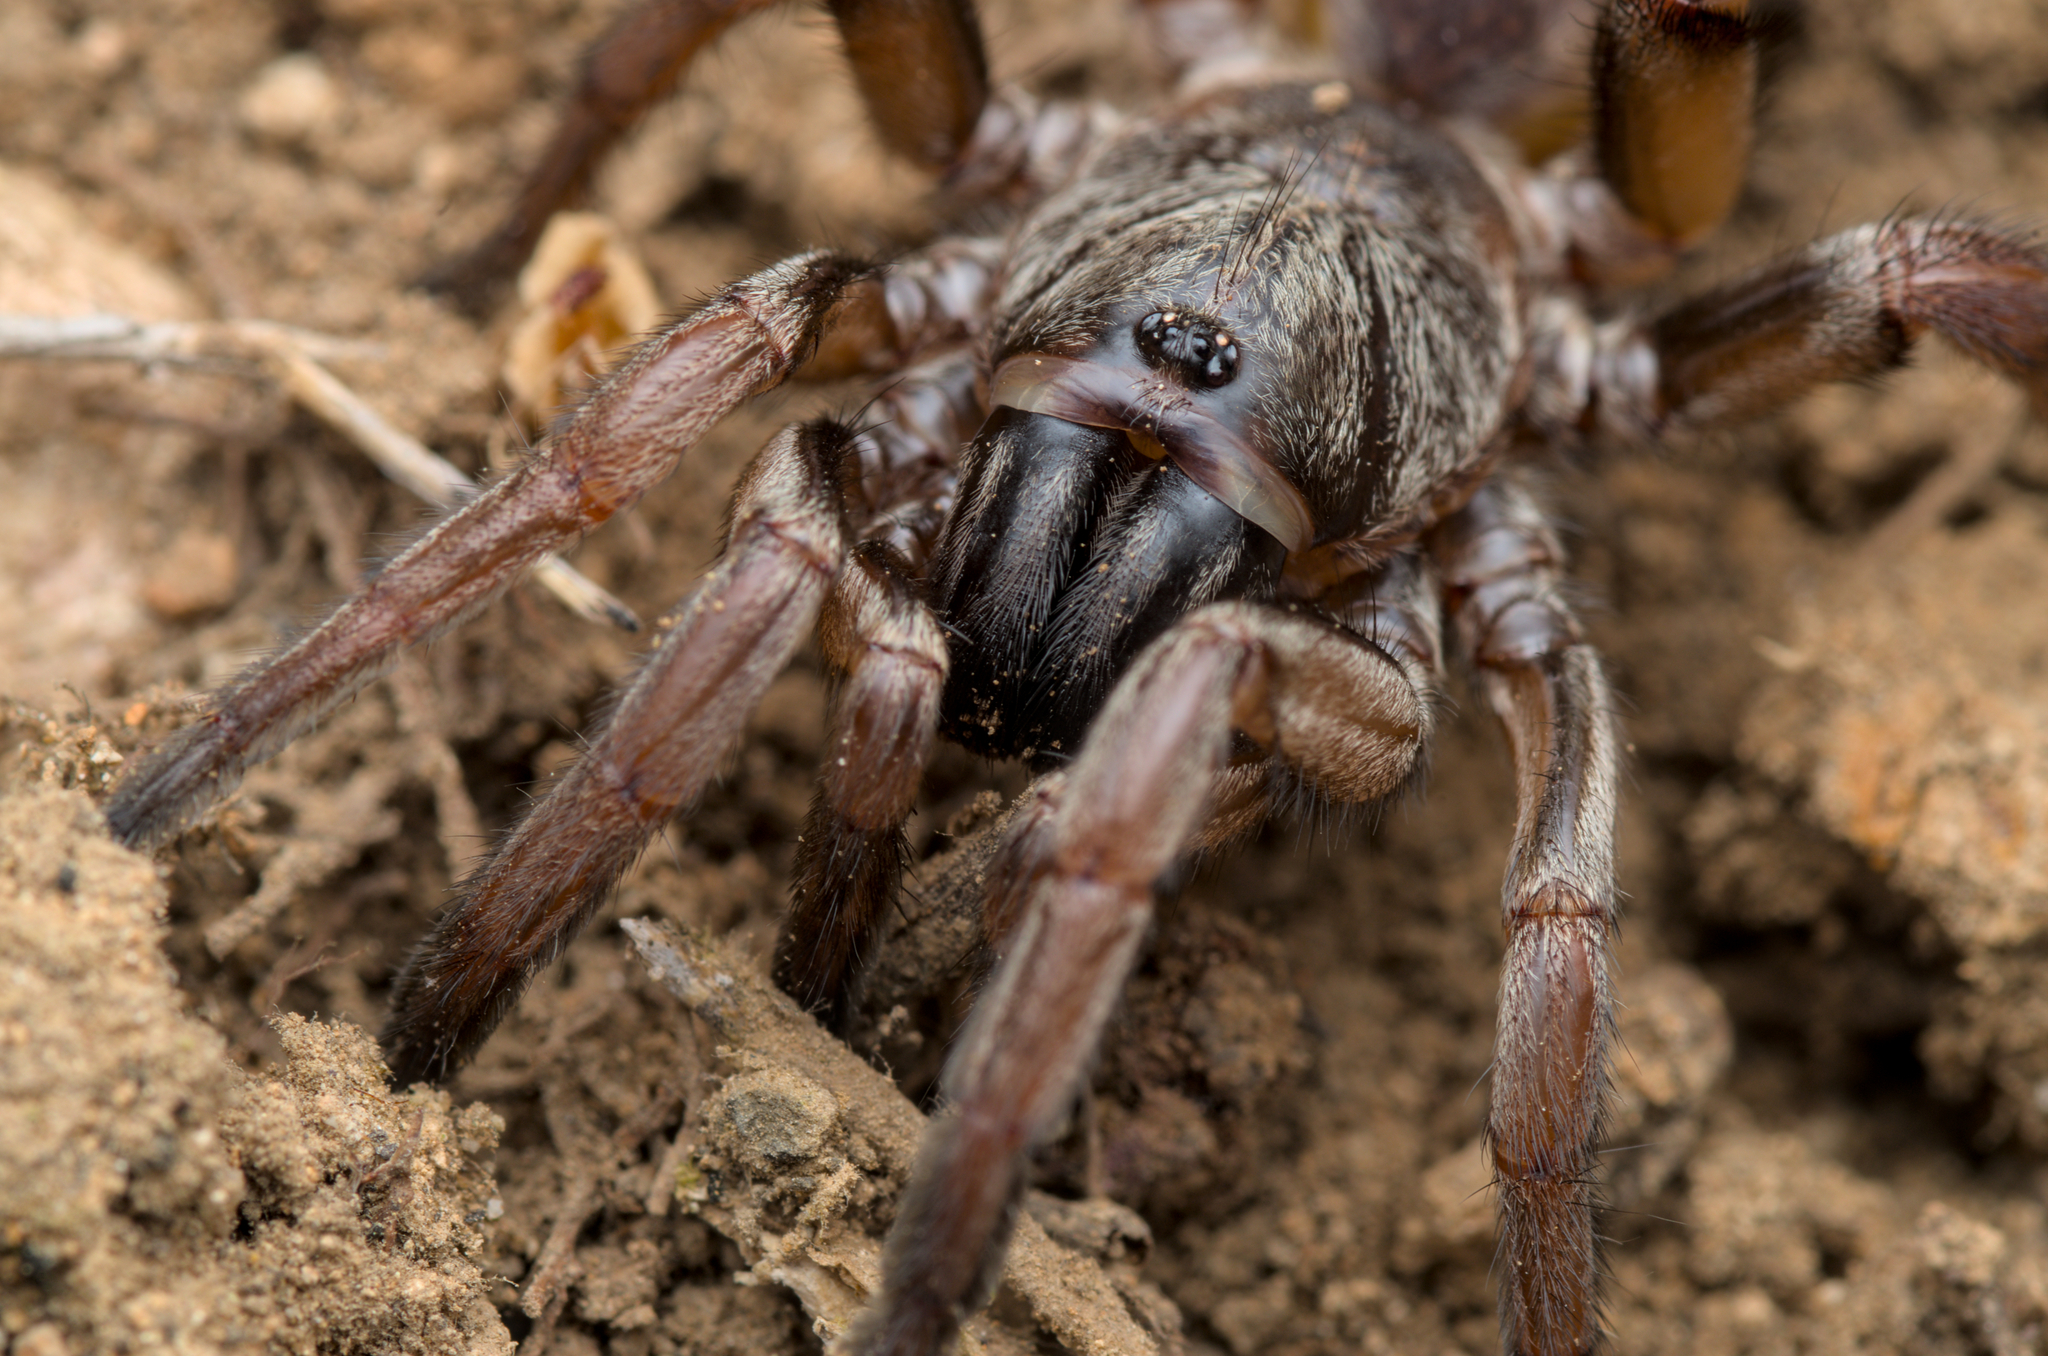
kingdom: Animalia
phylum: Arthropoda
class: Arachnida
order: Araneae
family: Nemesiidae
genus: Nemesia
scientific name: Nemesia congener
